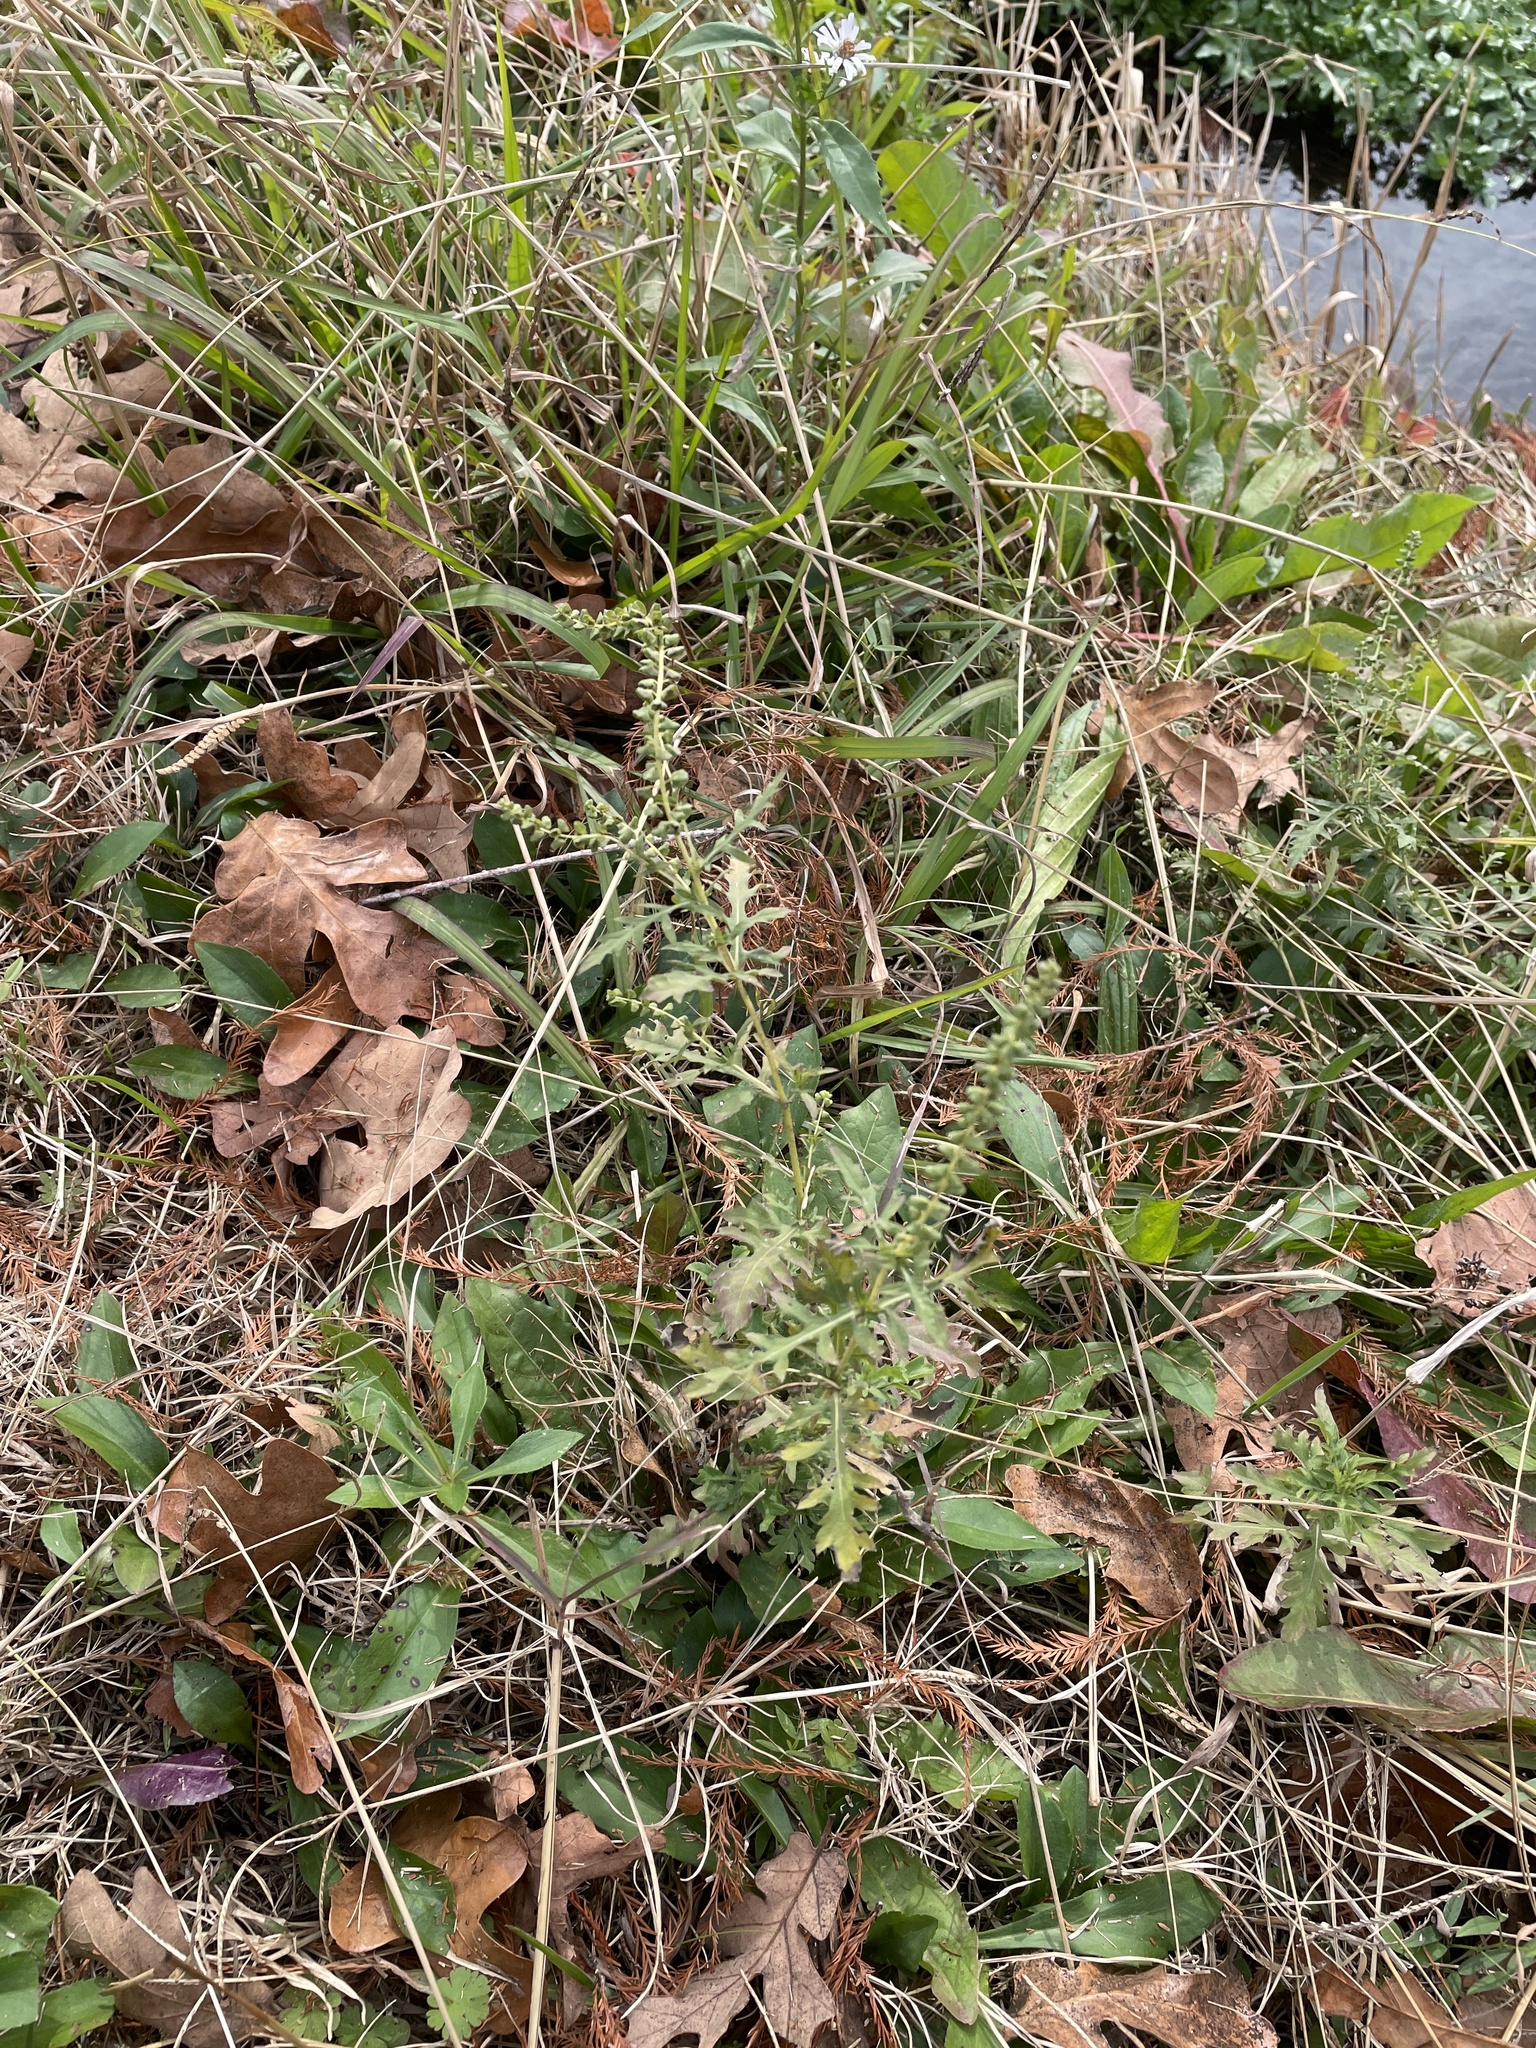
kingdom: Plantae
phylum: Tracheophyta
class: Magnoliopsida
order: Asterales
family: Asteraceae
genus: Ambrosia
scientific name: Ambrosia psilostachya
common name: Perennial ragweed
